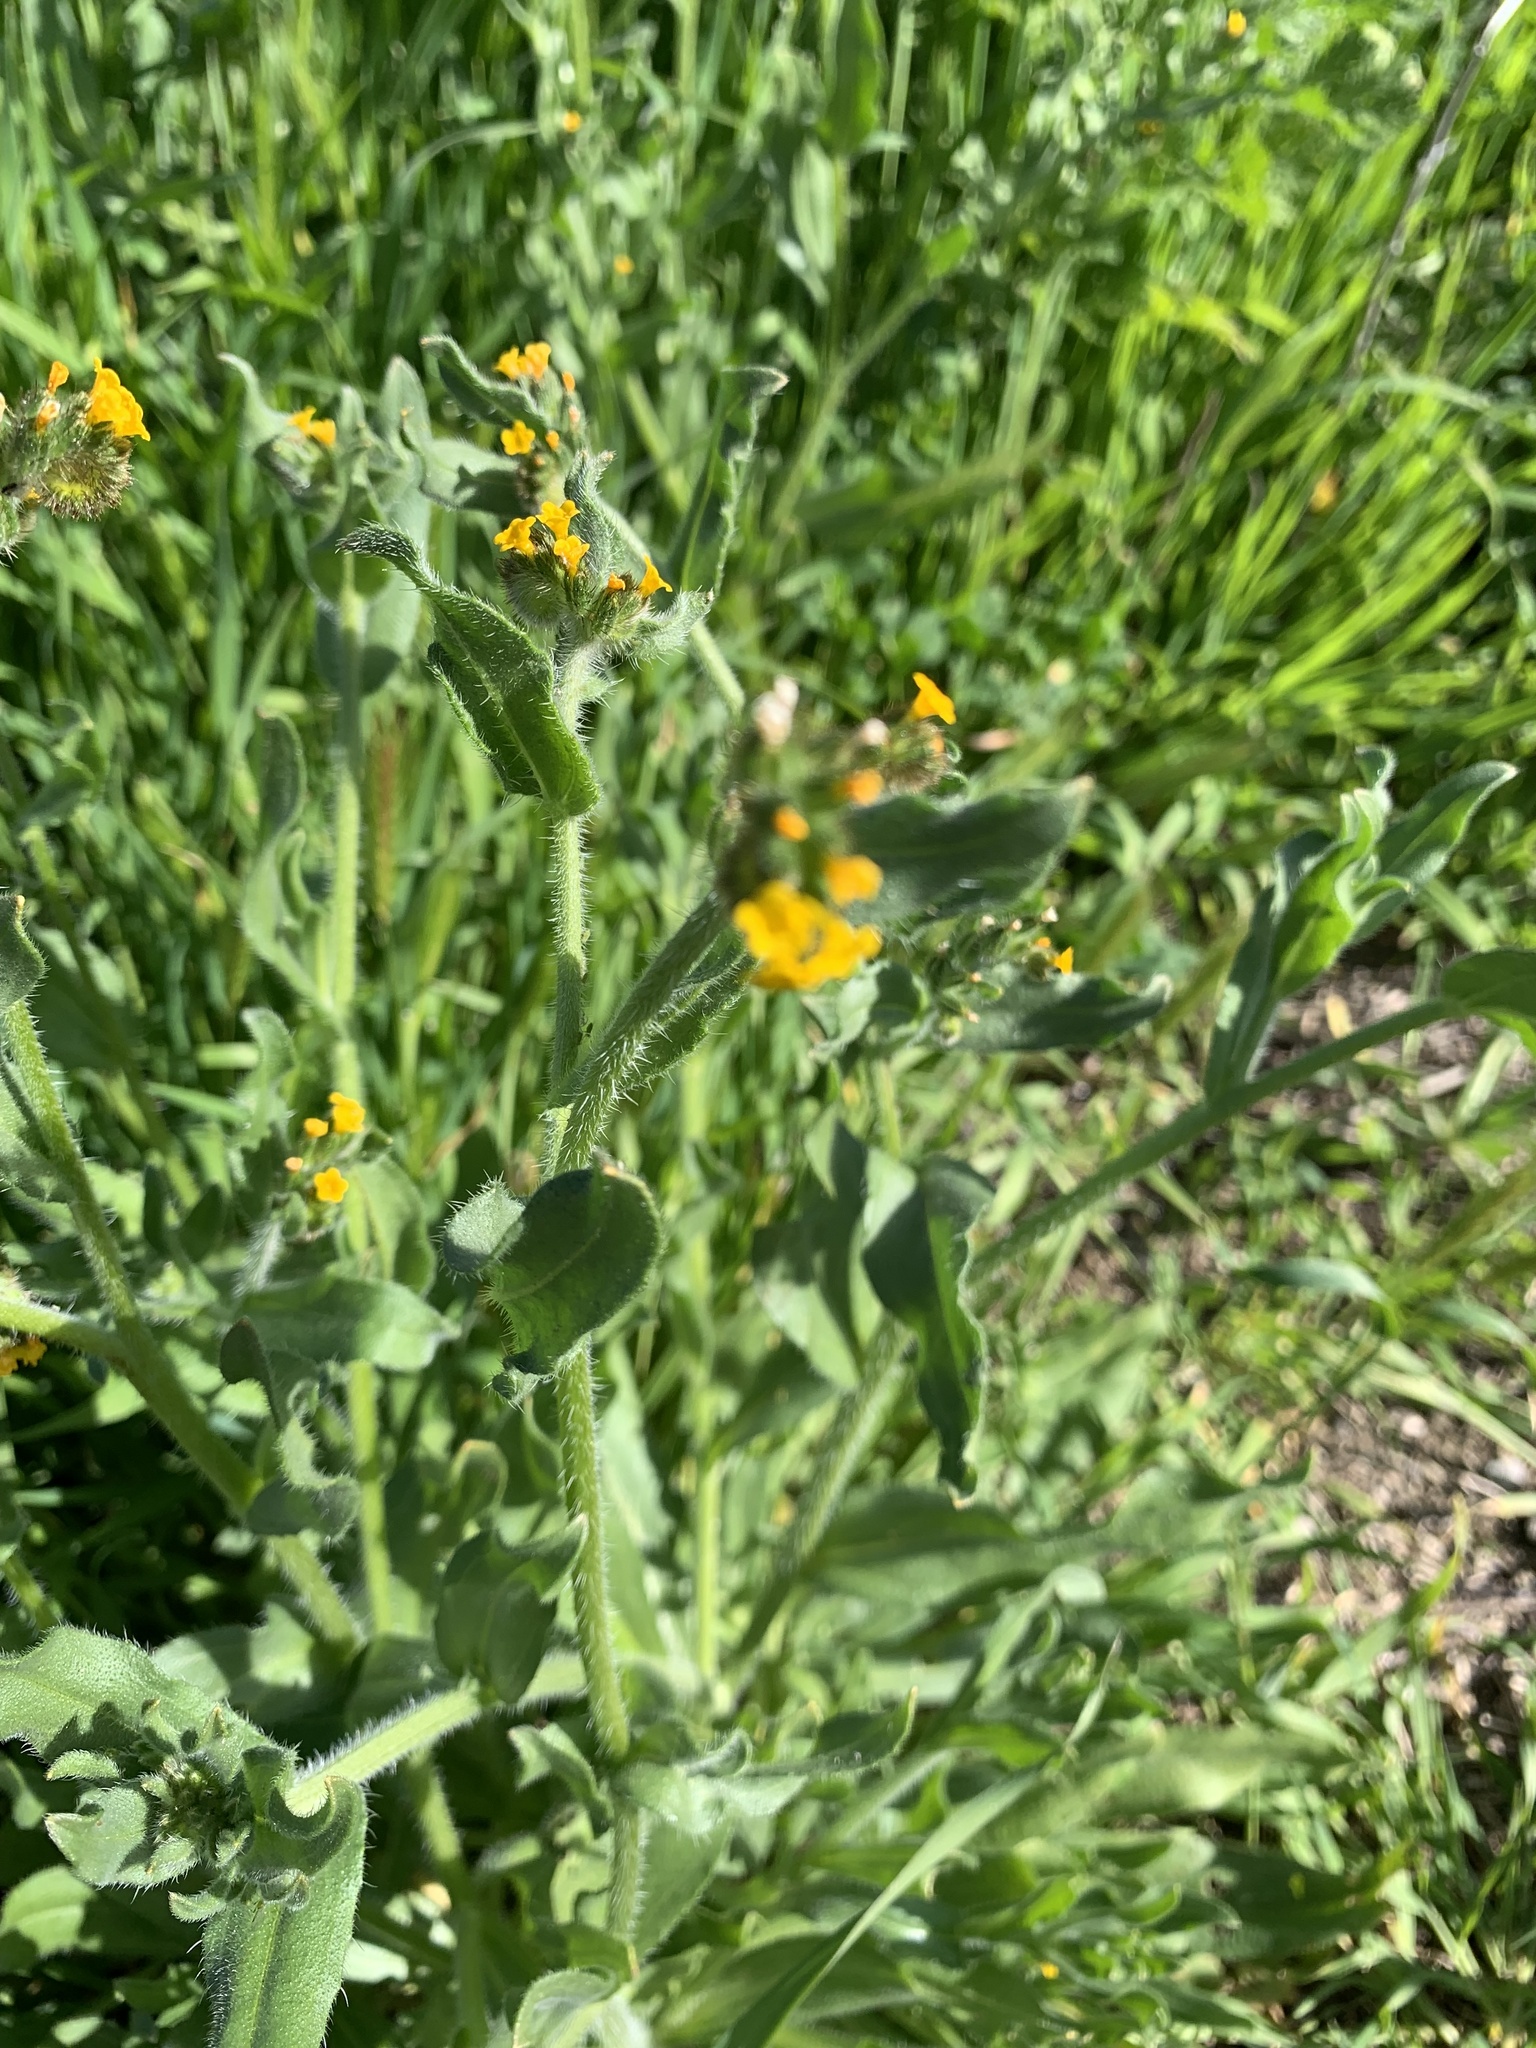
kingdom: Plantae
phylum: Tracheophyta
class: Magnoliopsida
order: Boraginales
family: Boraginaceae
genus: Amsinckia
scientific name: Amsinckia menziesii
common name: Menzies' fiddleneck
